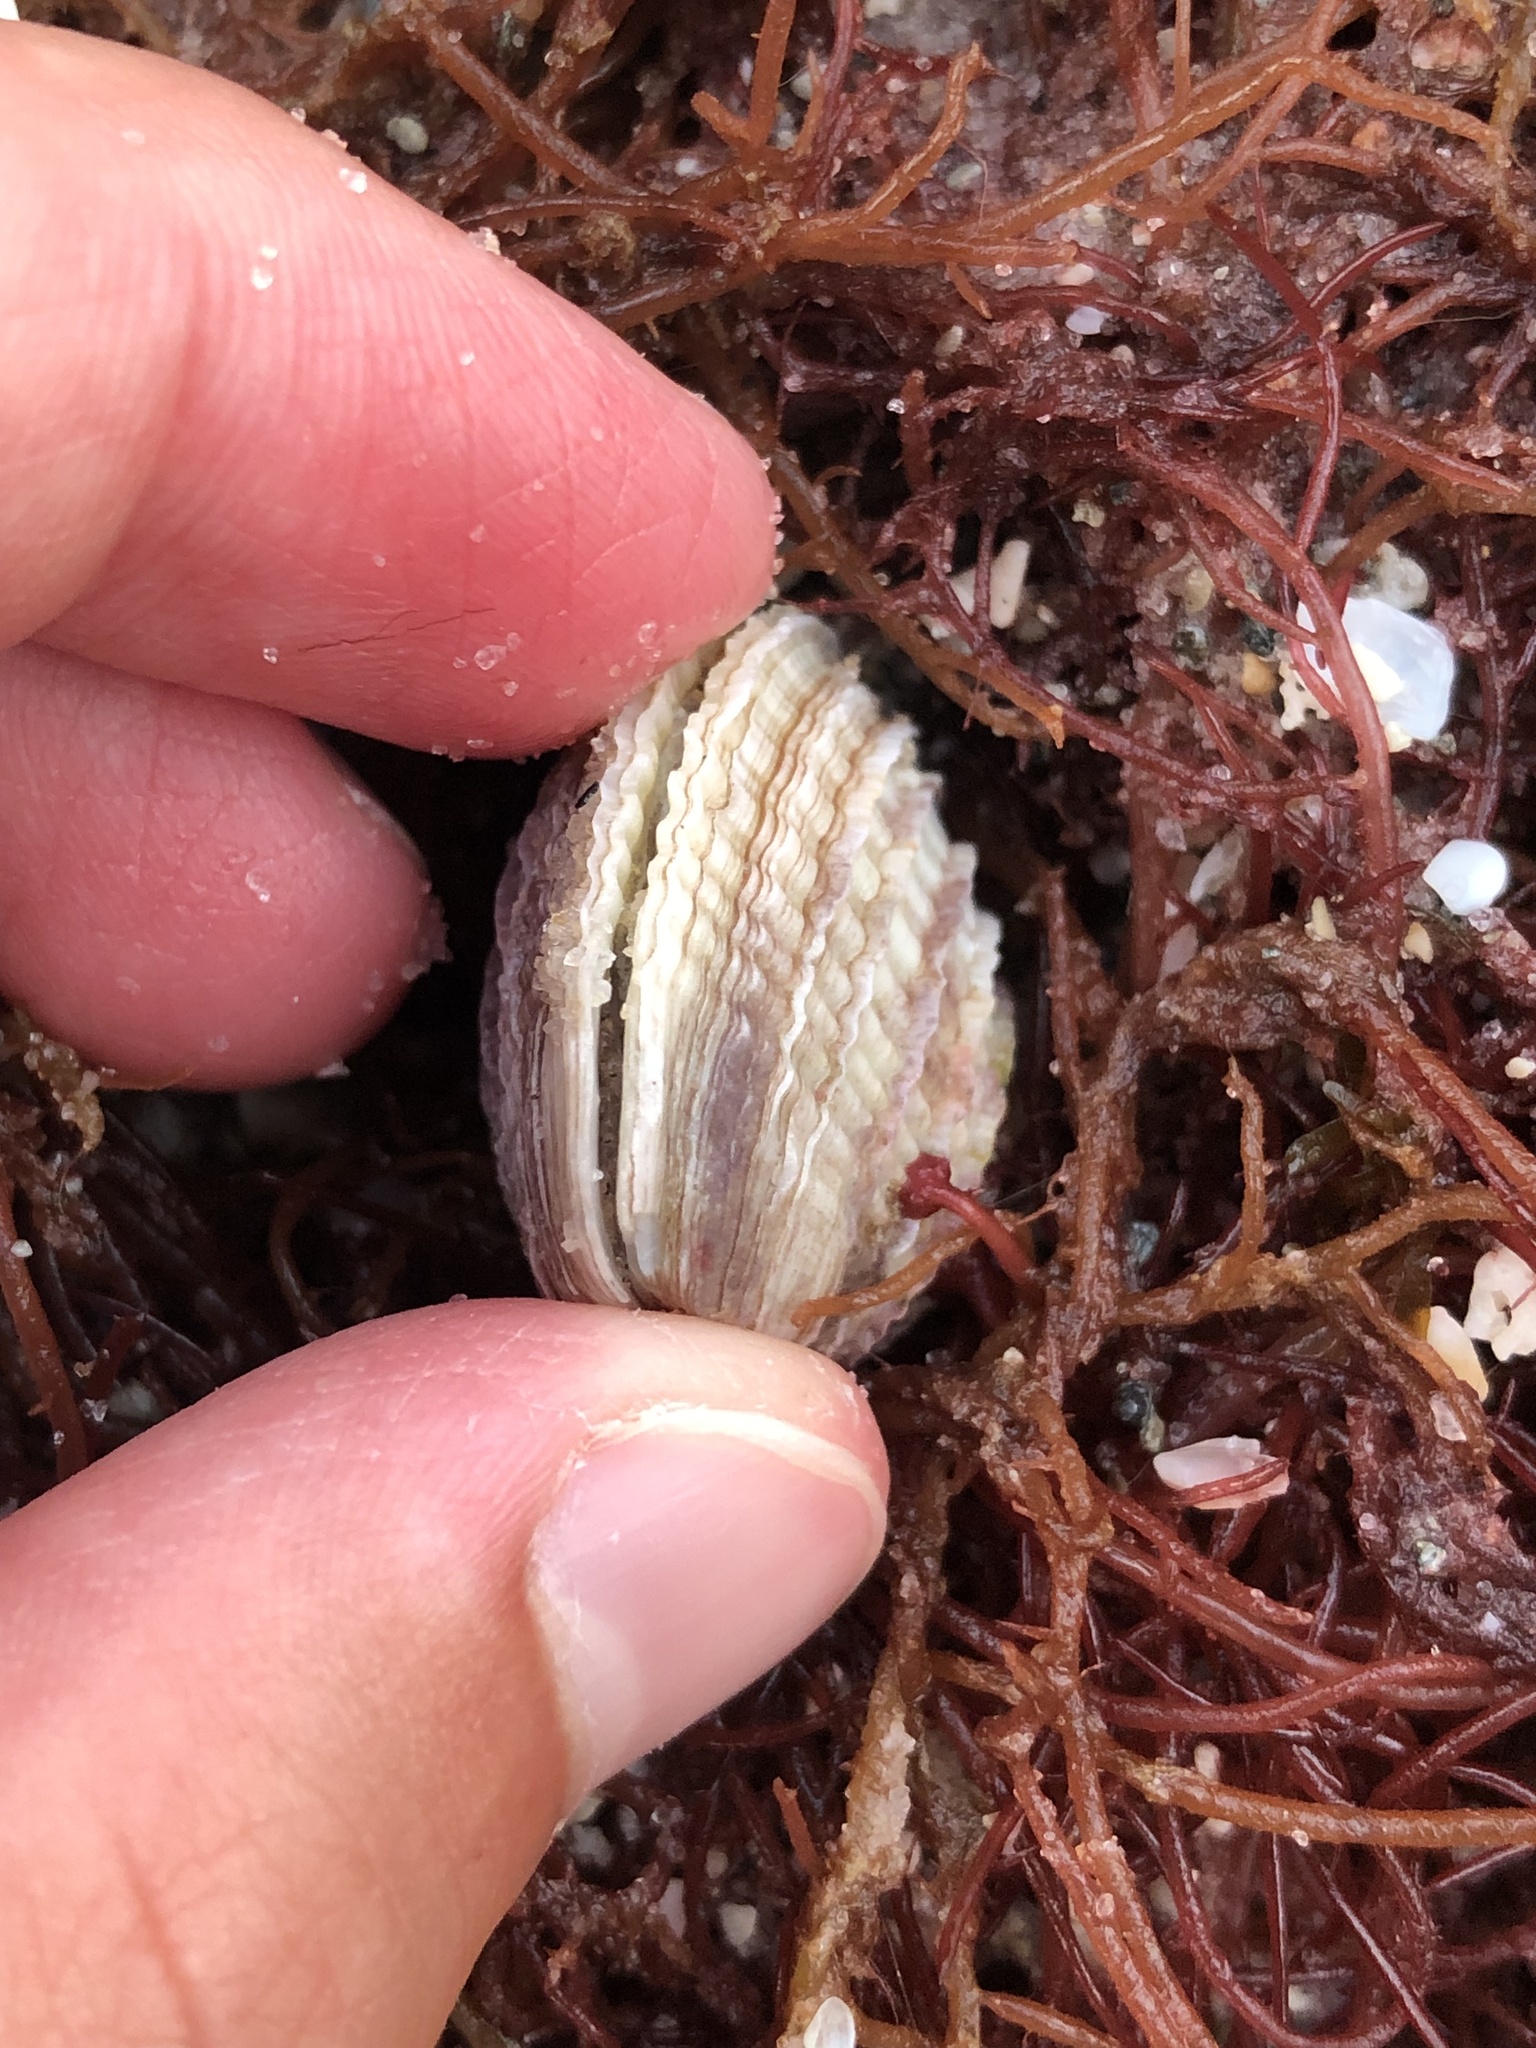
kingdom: Animalia
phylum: Mollusca
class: Bivalvia
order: Venerida
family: Veneridae
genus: Chione
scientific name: Chione elevata
